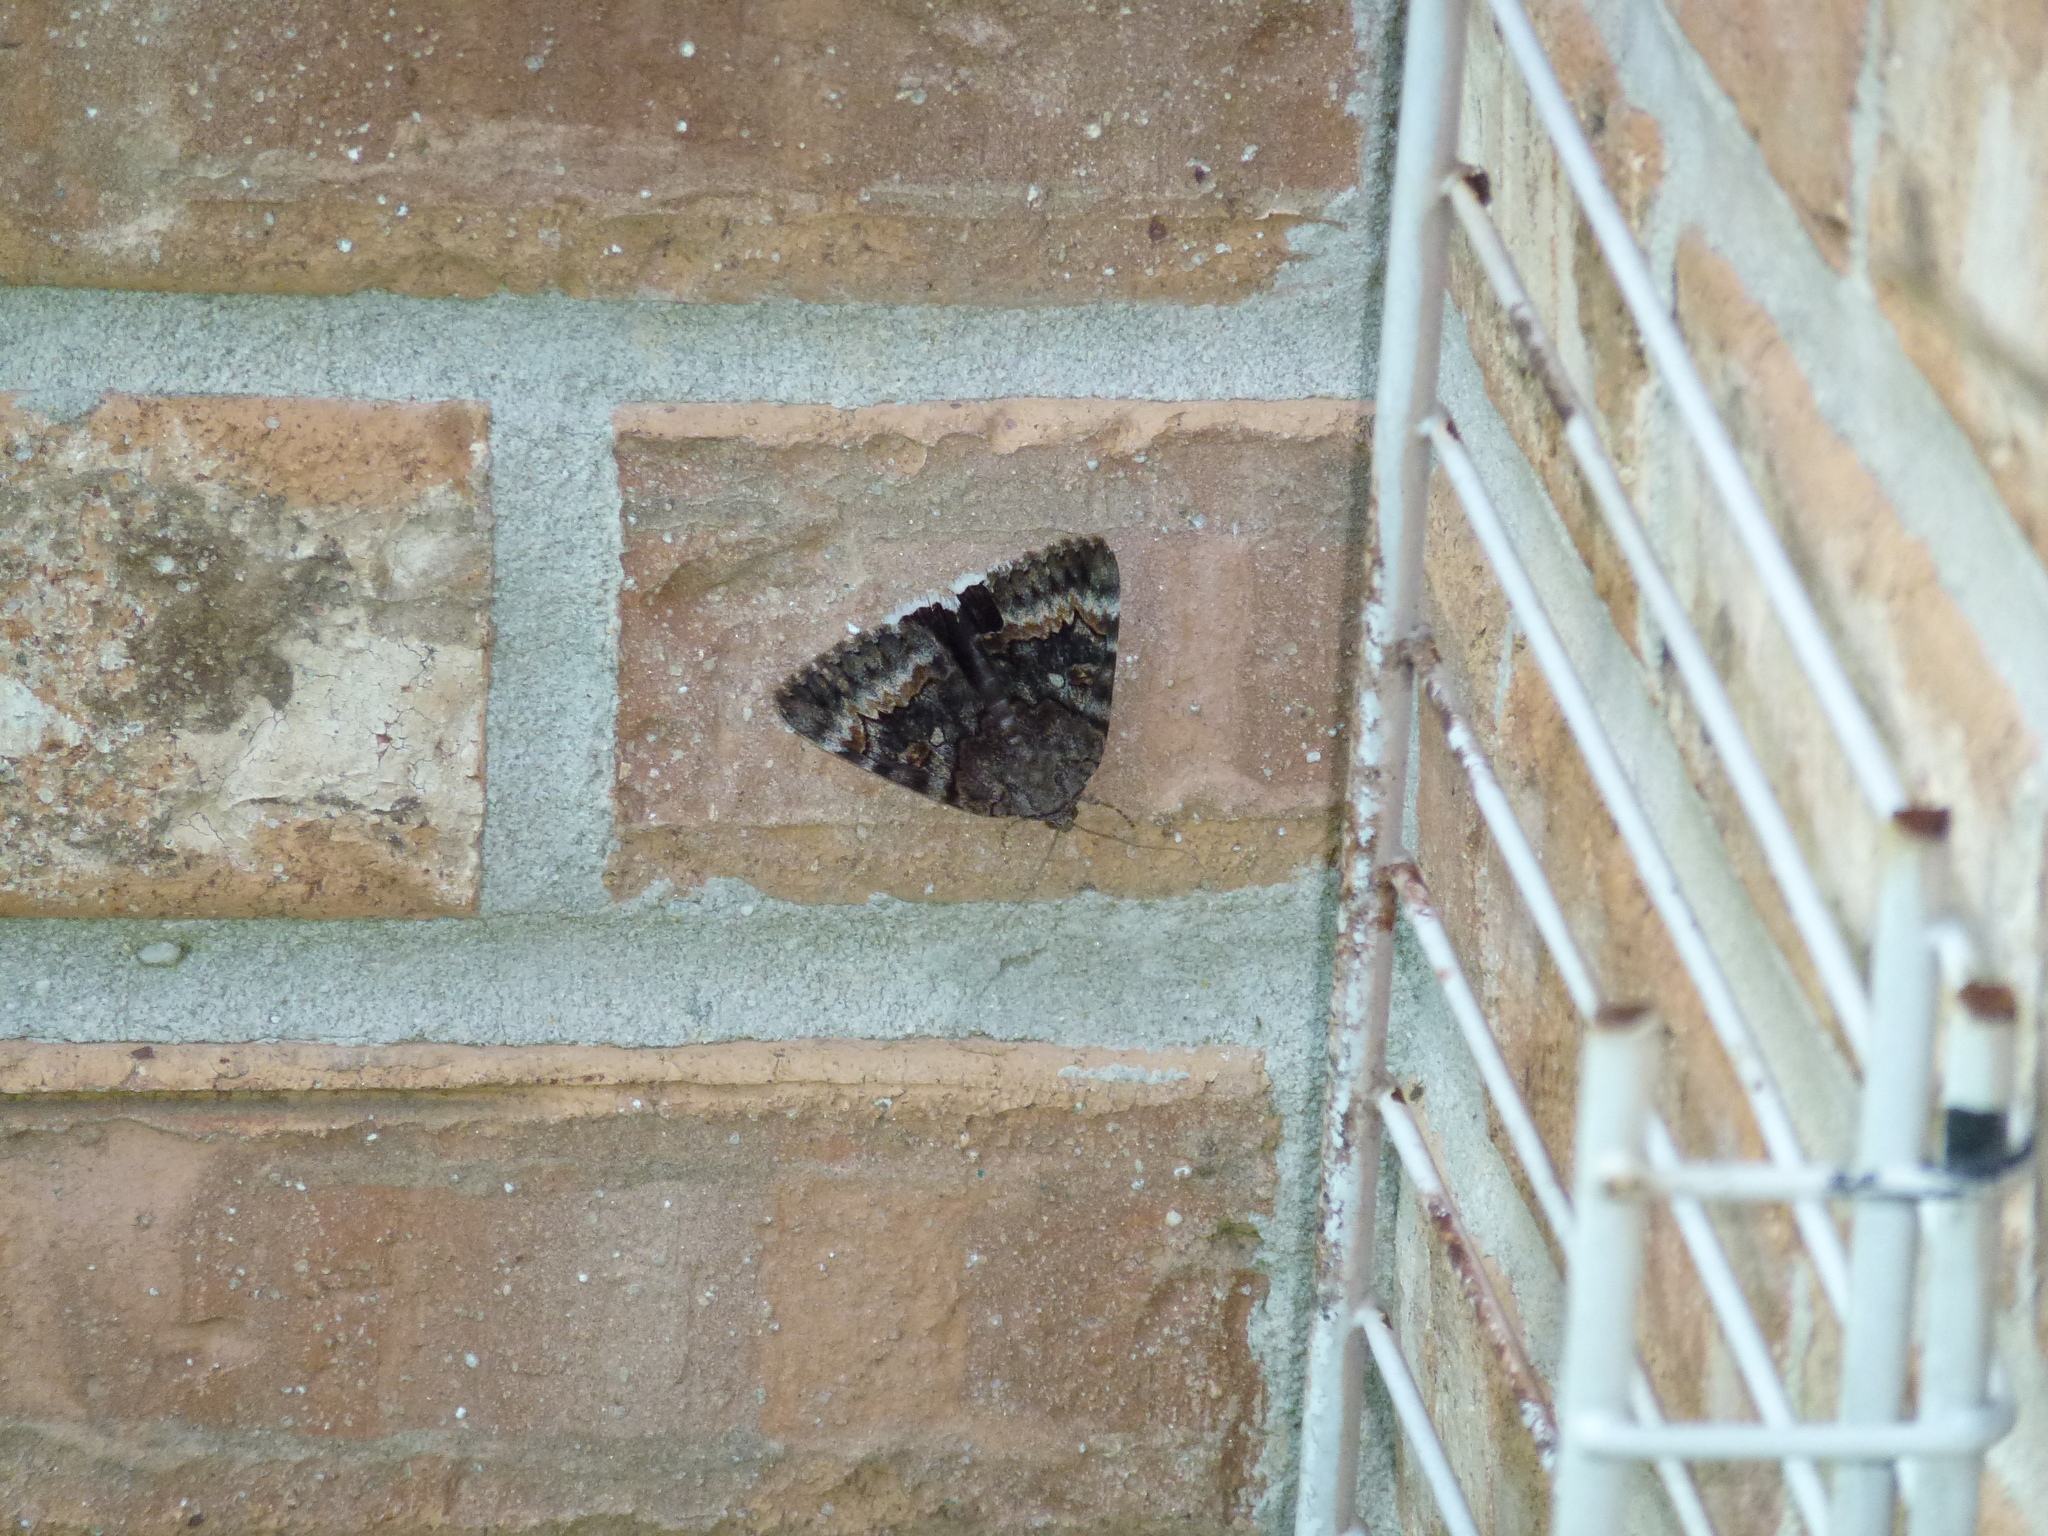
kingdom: Animalia
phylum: Arthropoda
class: Insecta
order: Lepidoptera
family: Erebidae
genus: Catocala
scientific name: Catocala epione
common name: Epione underwing
